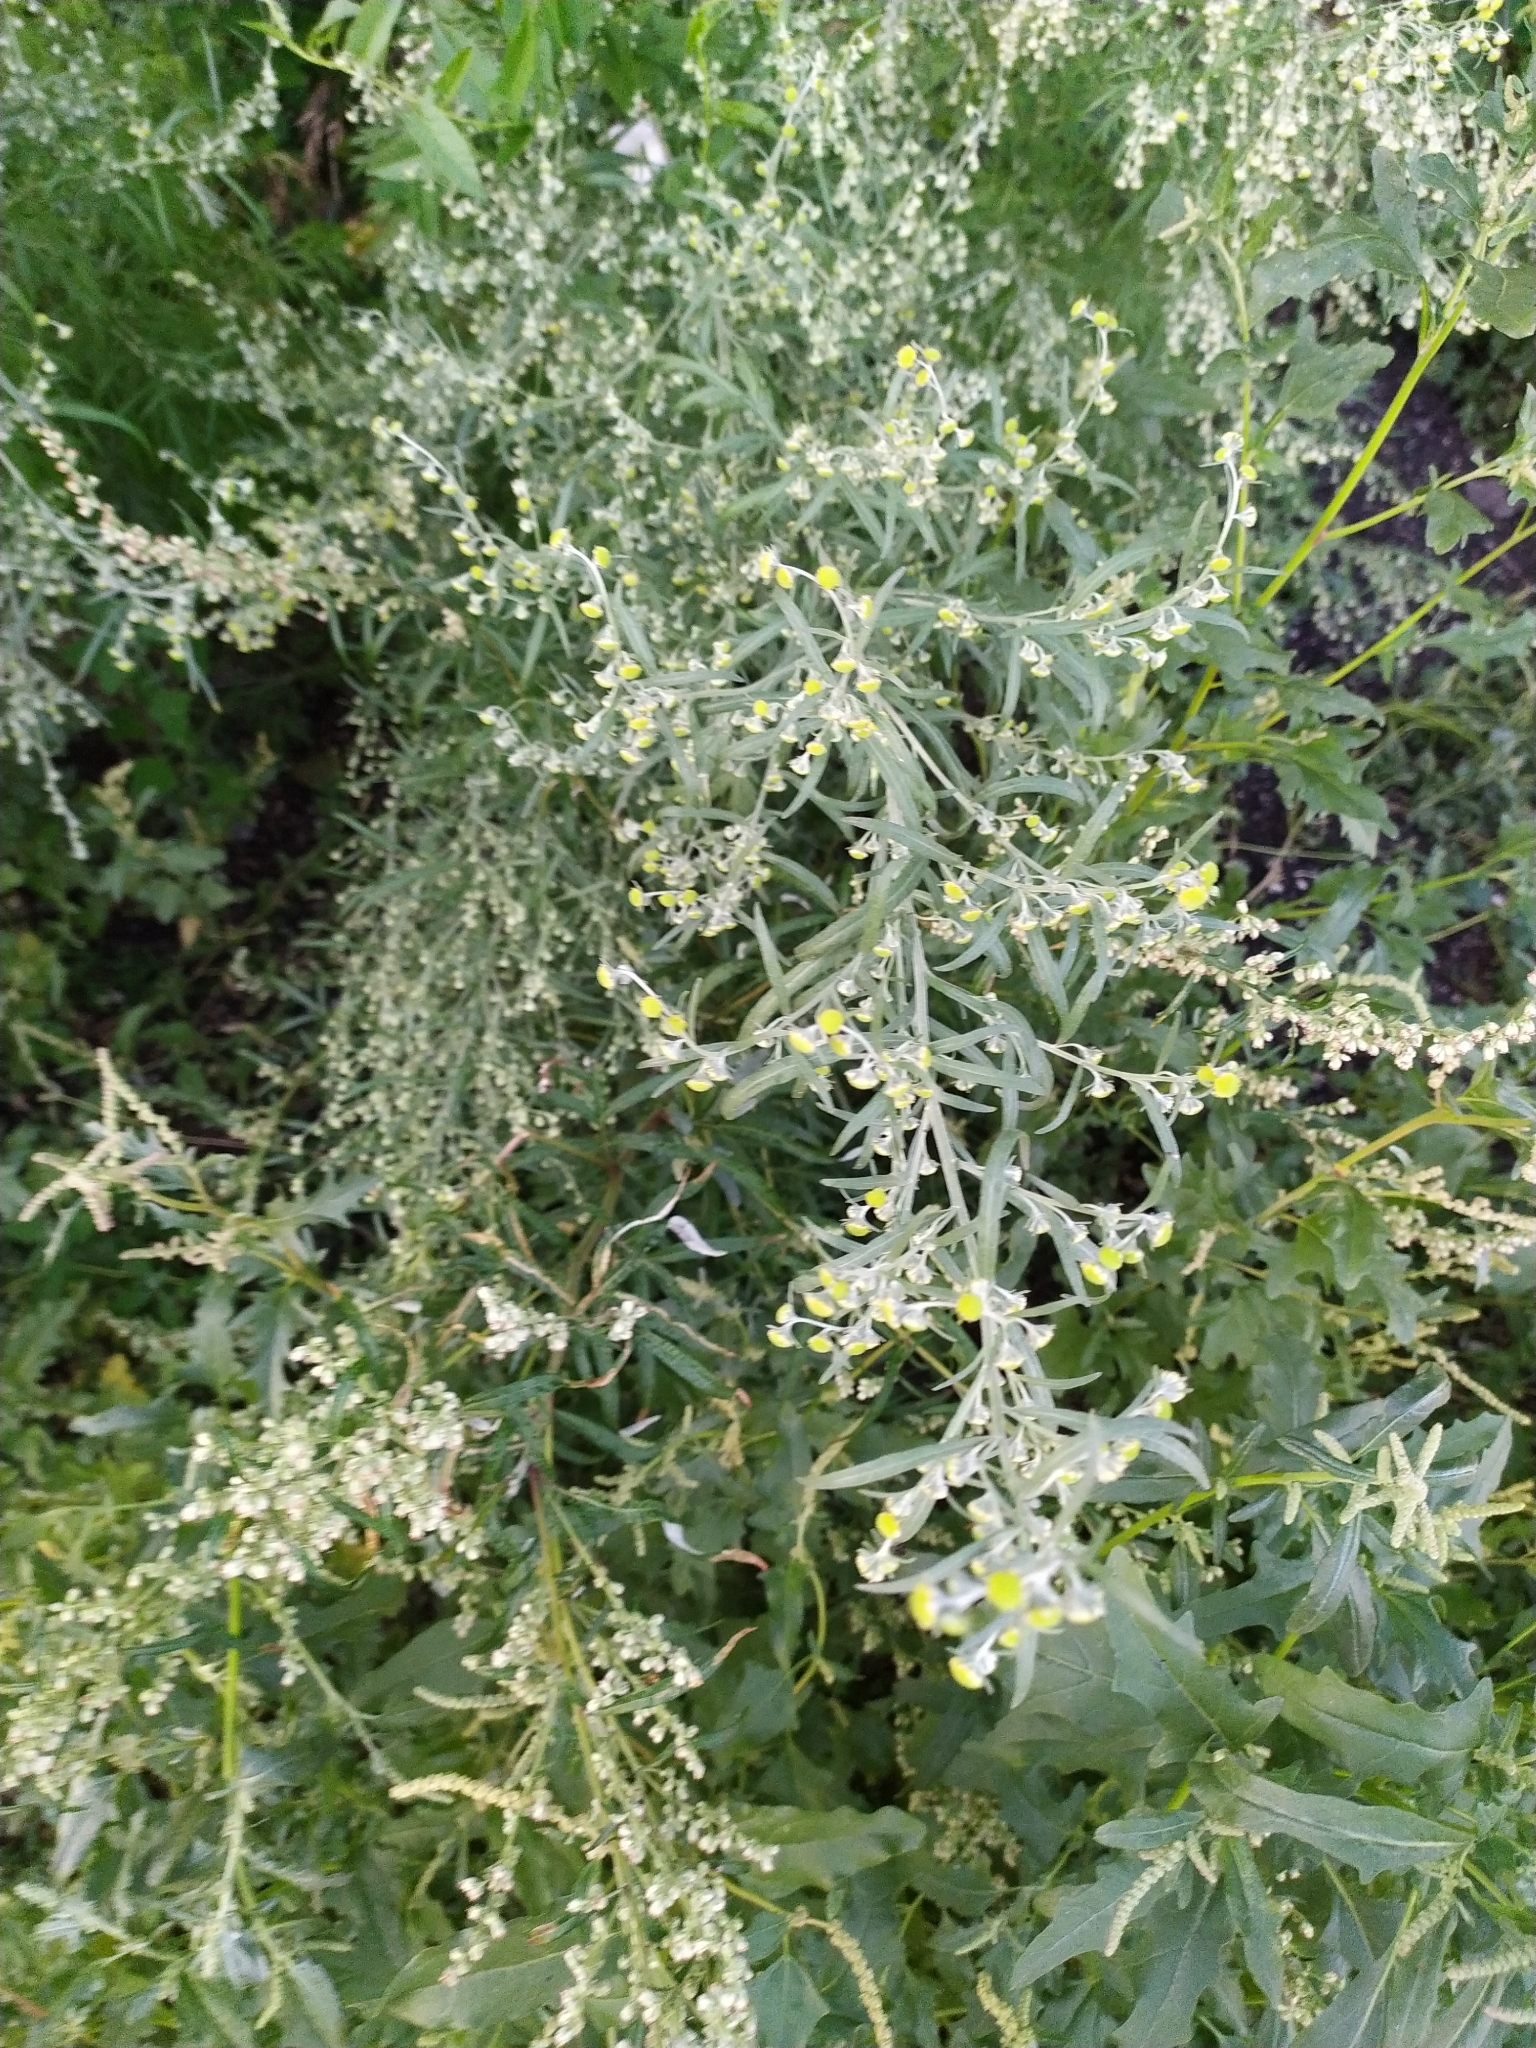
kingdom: Plantae
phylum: Tracheophyta
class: Magnoliopsida
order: Asterales
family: Asteraceae
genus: Artemisia
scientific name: Artemisia absinthium
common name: Wormwood
